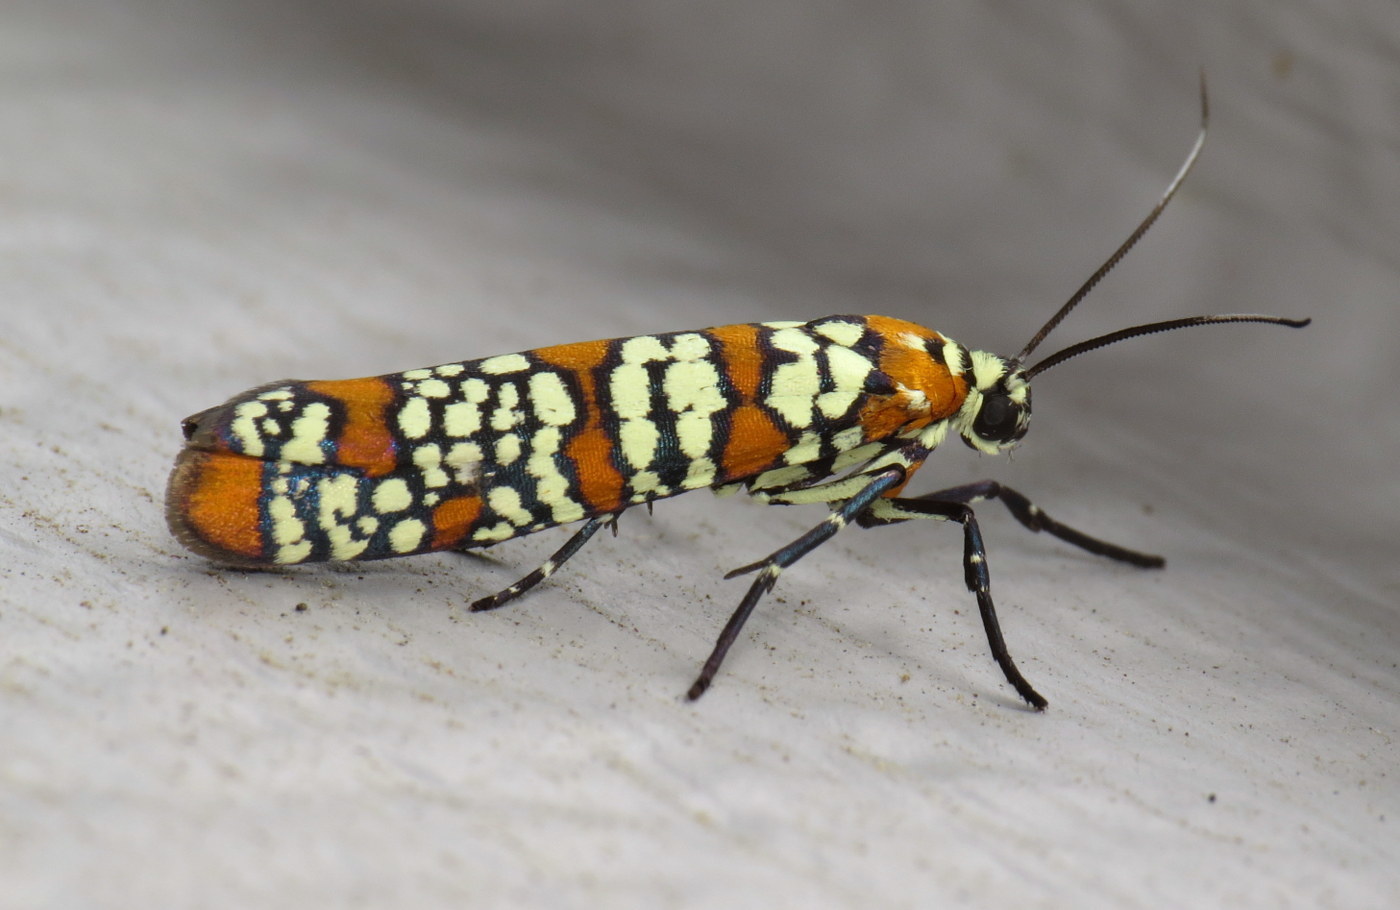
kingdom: Animalia
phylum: Arthropoda
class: Insecta
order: Lepidoptera
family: Attevidae
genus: Atteva
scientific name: Atteva punctella
